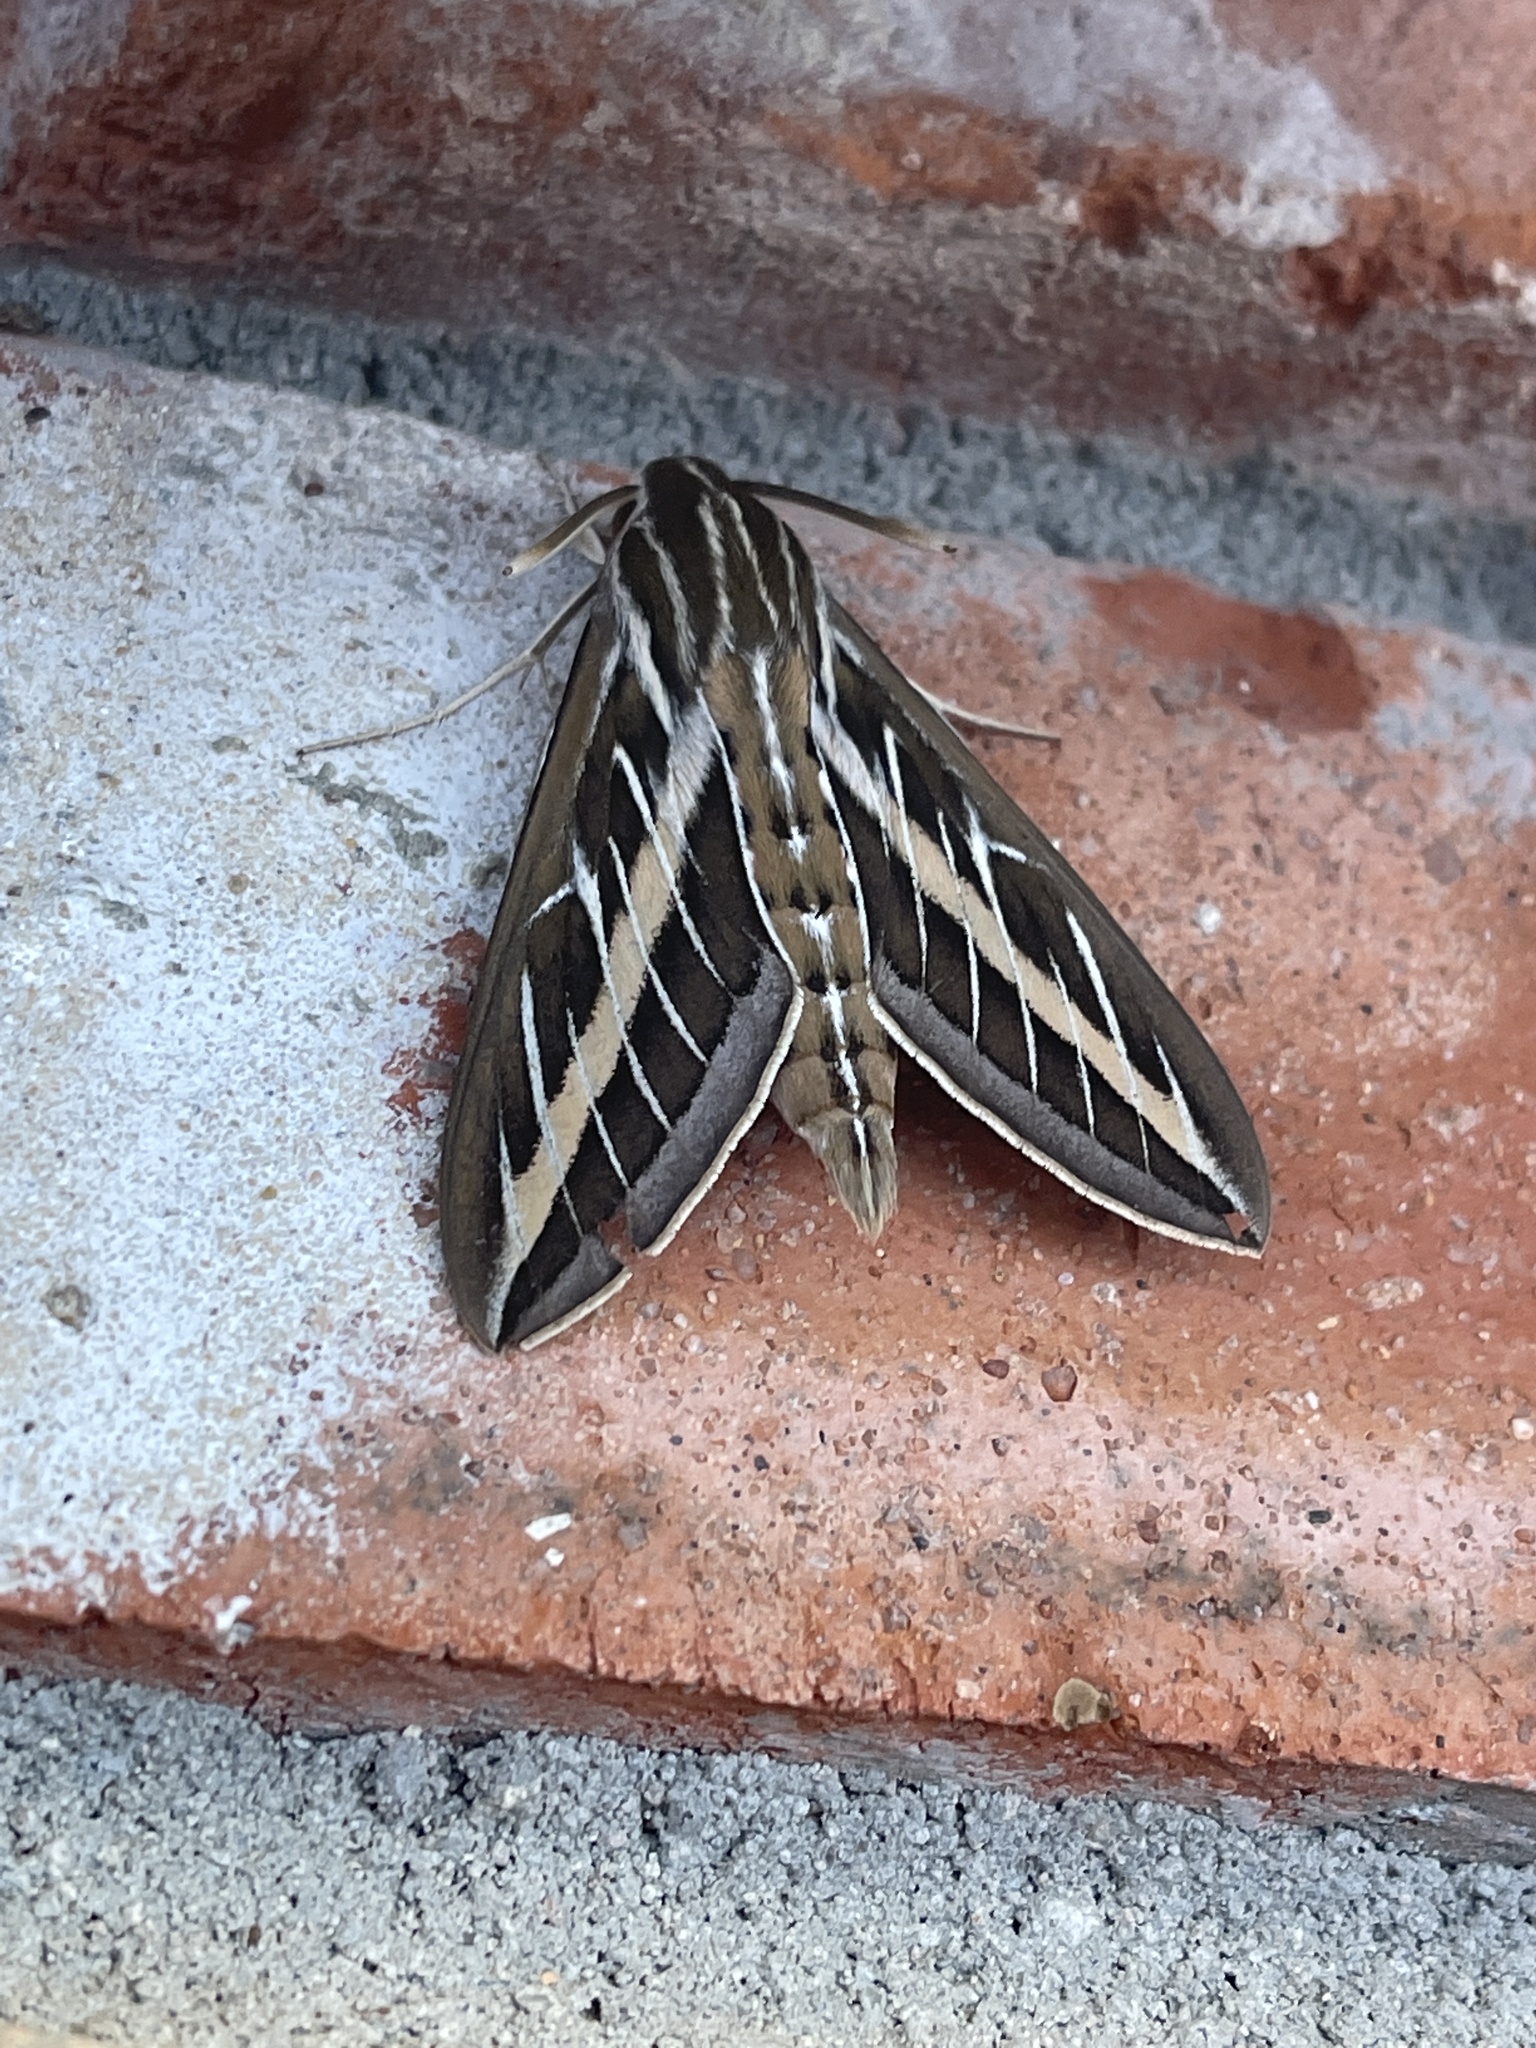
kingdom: Animalia
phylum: Arthropoda
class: Insecta
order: Lepidoptera
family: Sphingidae
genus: Hyles
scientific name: Hyles lineata
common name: White-lined sphinx
